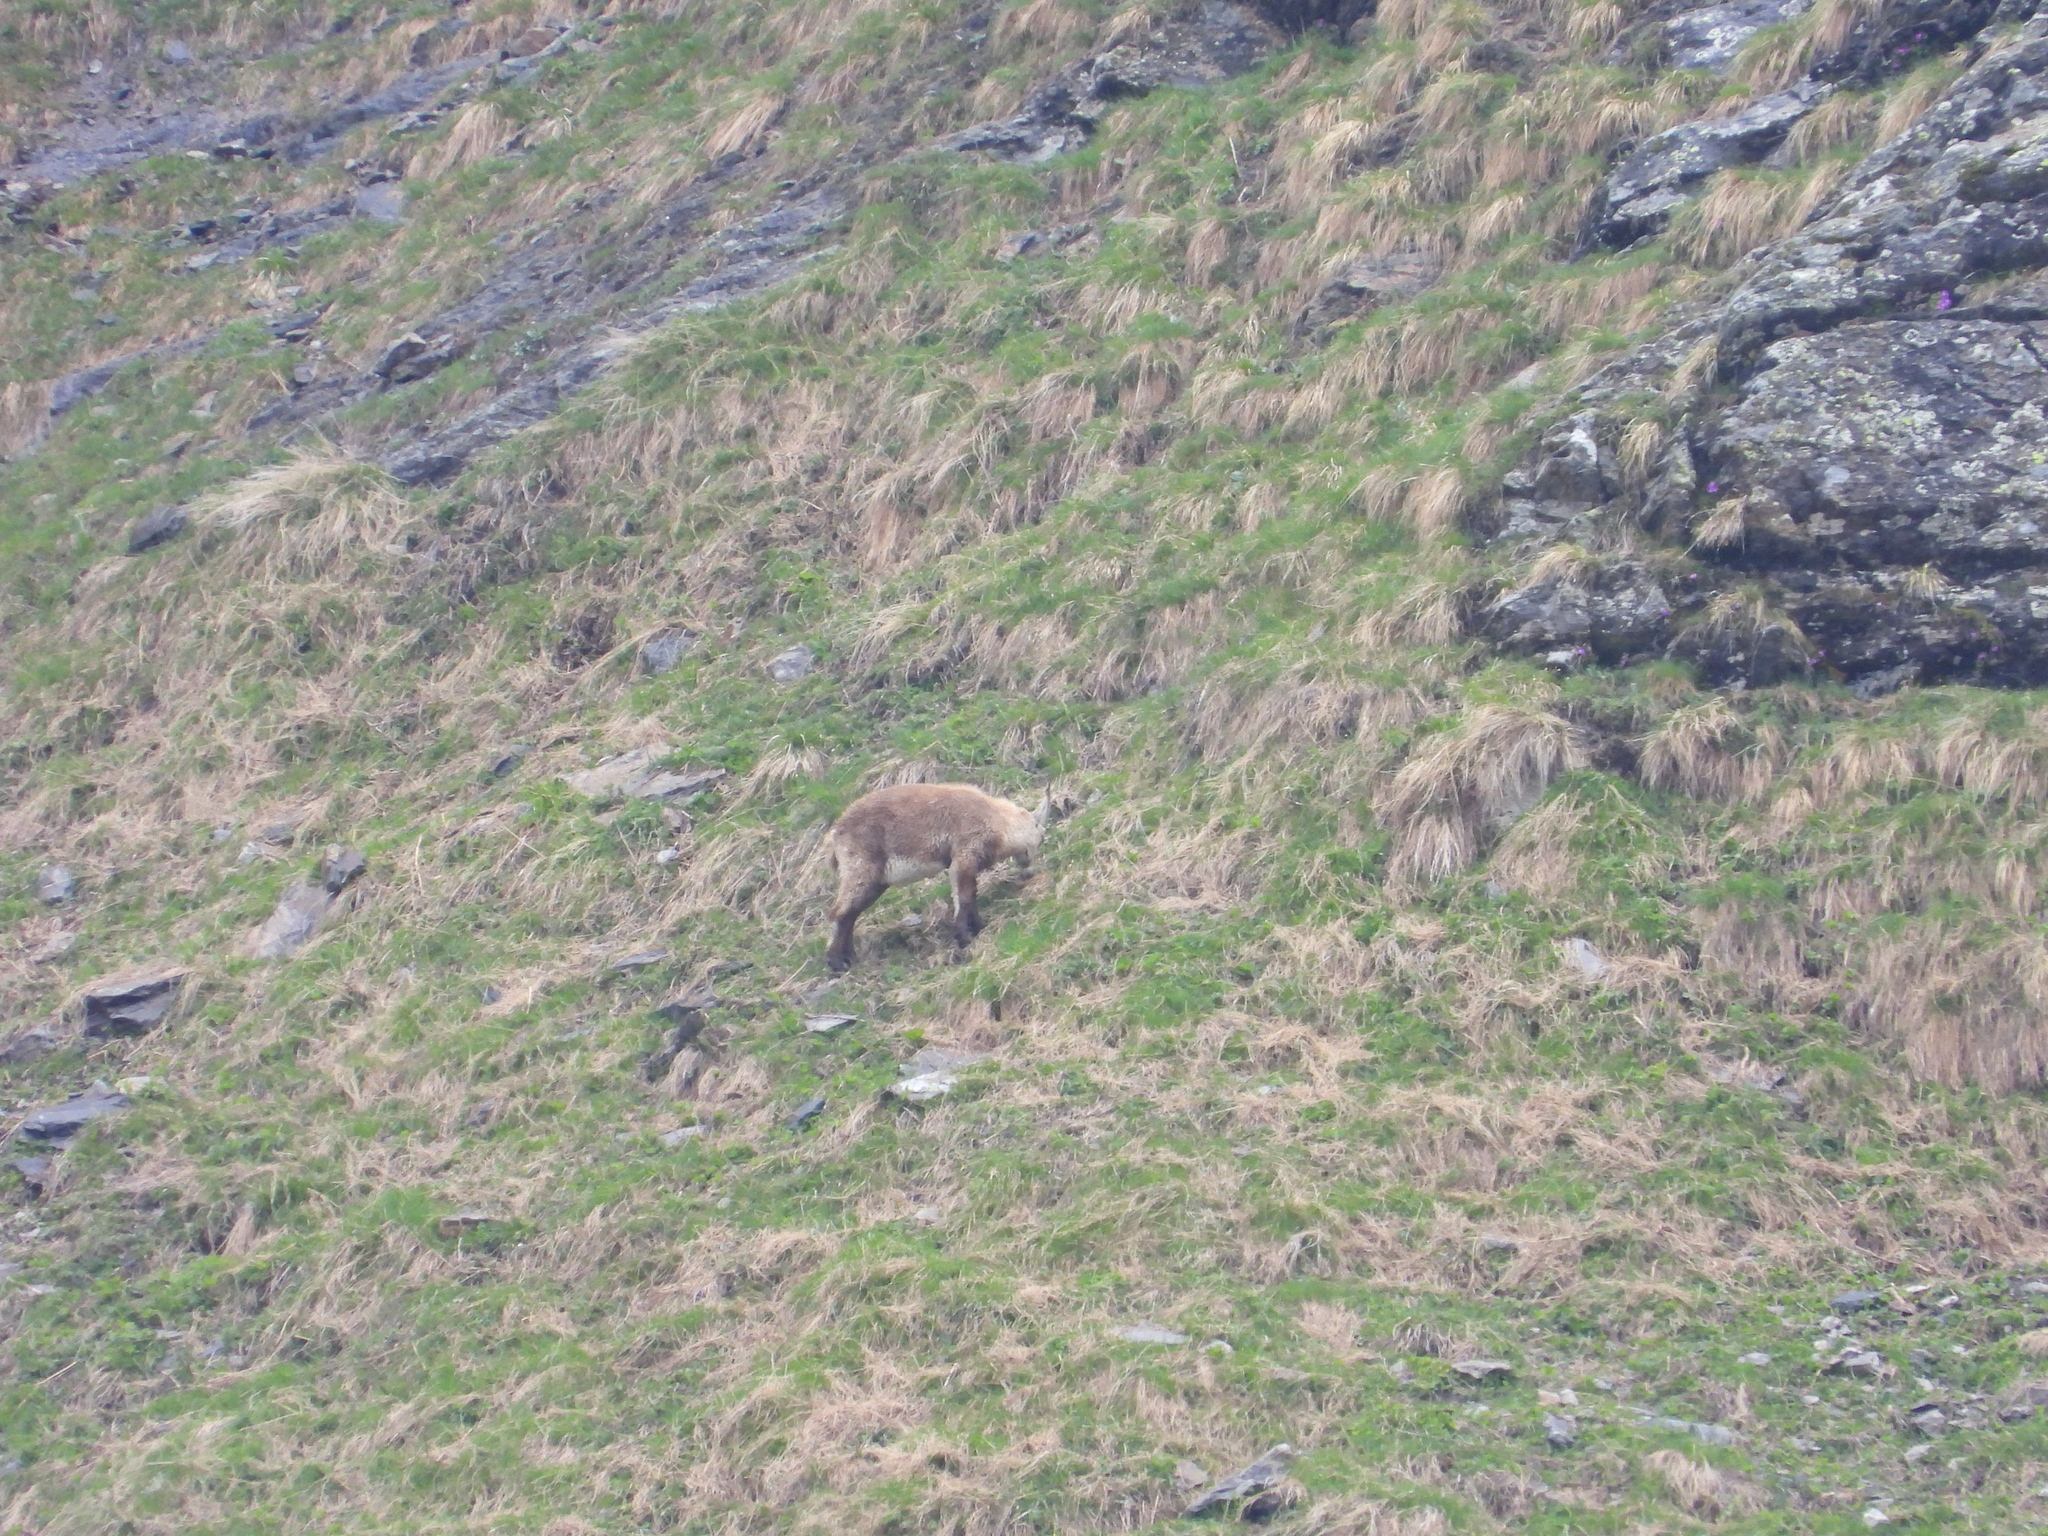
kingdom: Animalia
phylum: Chordata
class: Mammalia
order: Artiodactyla
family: Bovidae
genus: Capra
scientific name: Capra ibex
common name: Alpine ibex
